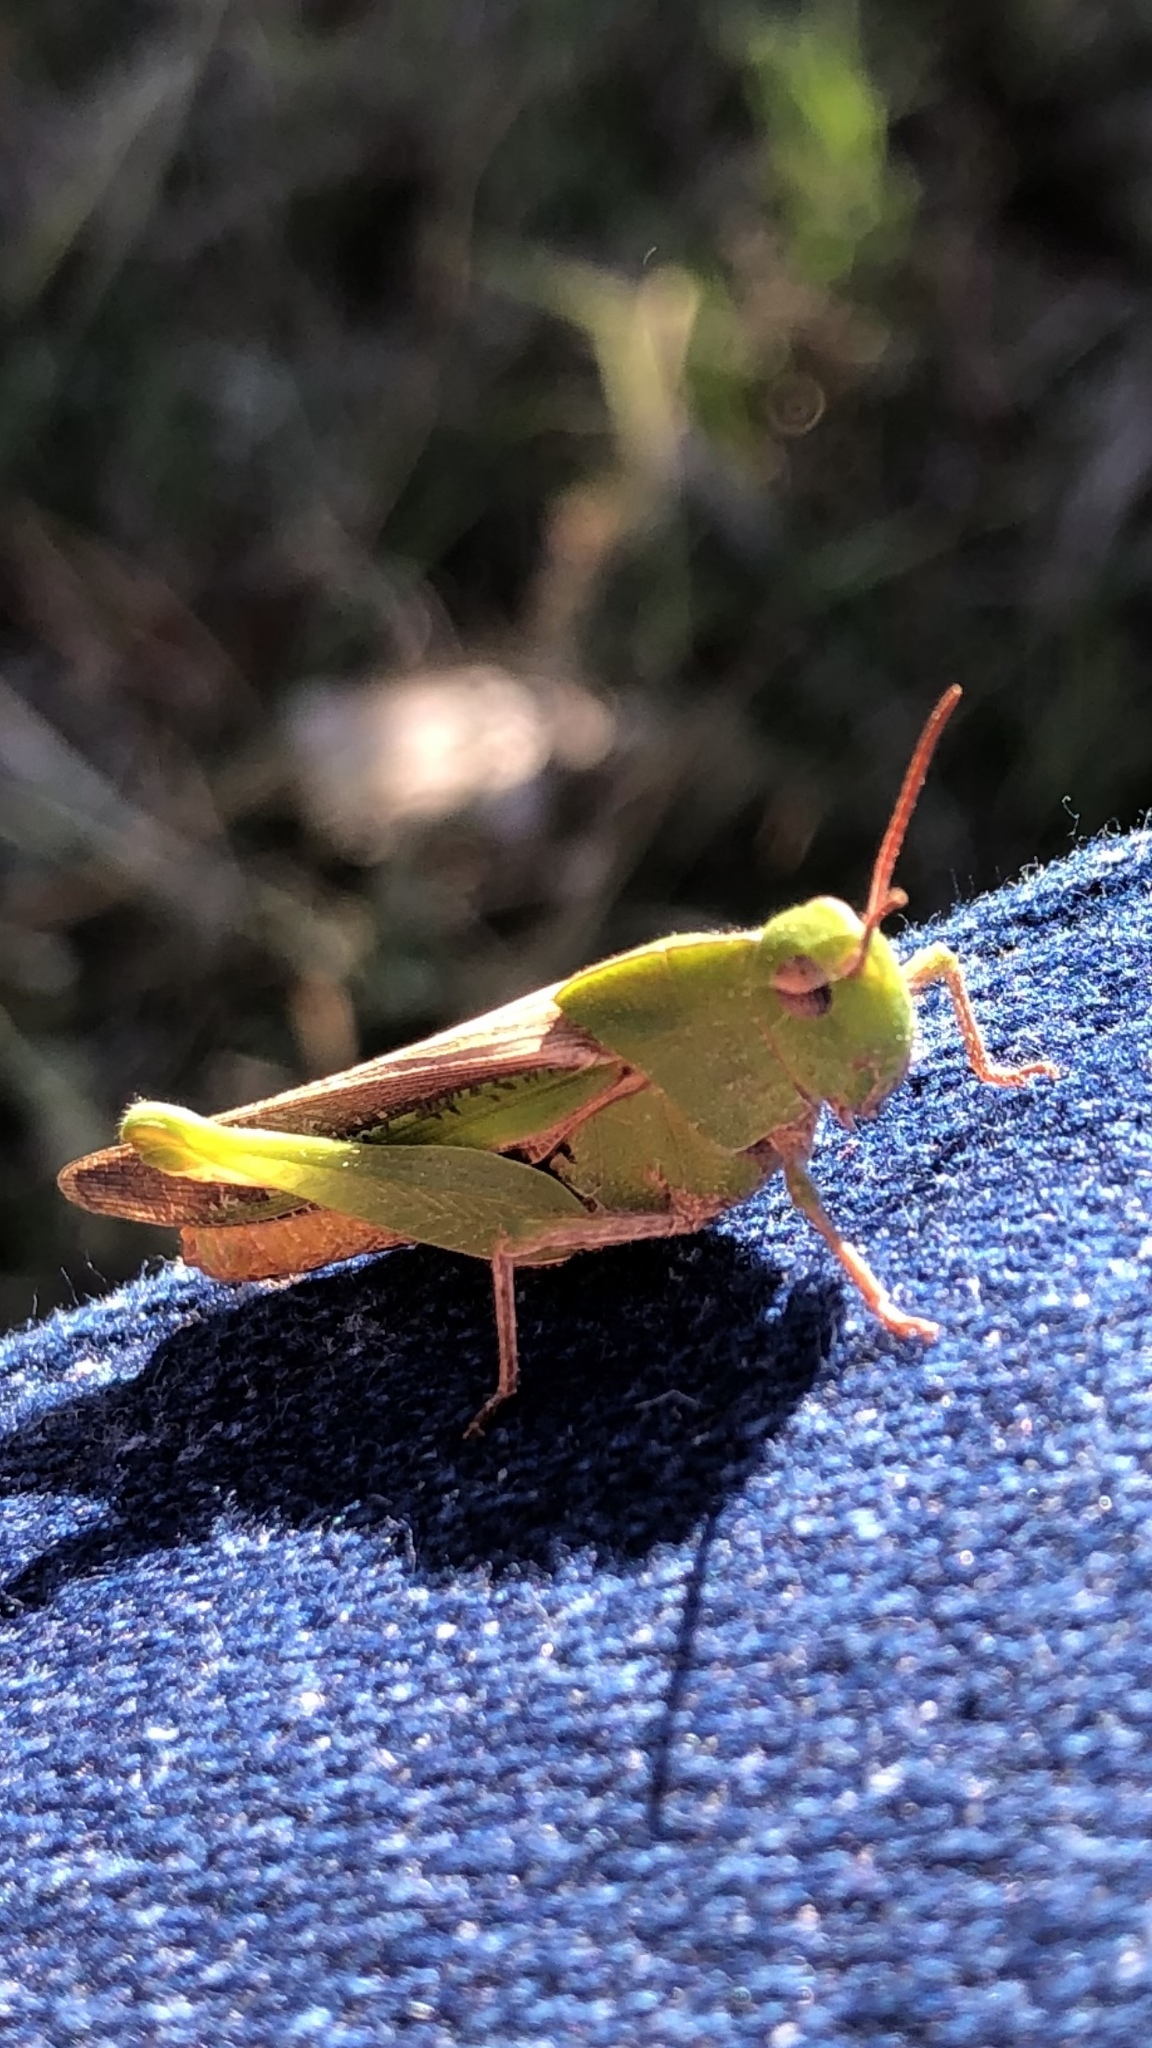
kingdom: Animalia
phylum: Arthropoda
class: Insecta
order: Orthoptera
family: Acrididae
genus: Chortophaga
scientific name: Chortophaga viridifasciata
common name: Green-striped grasshopper
